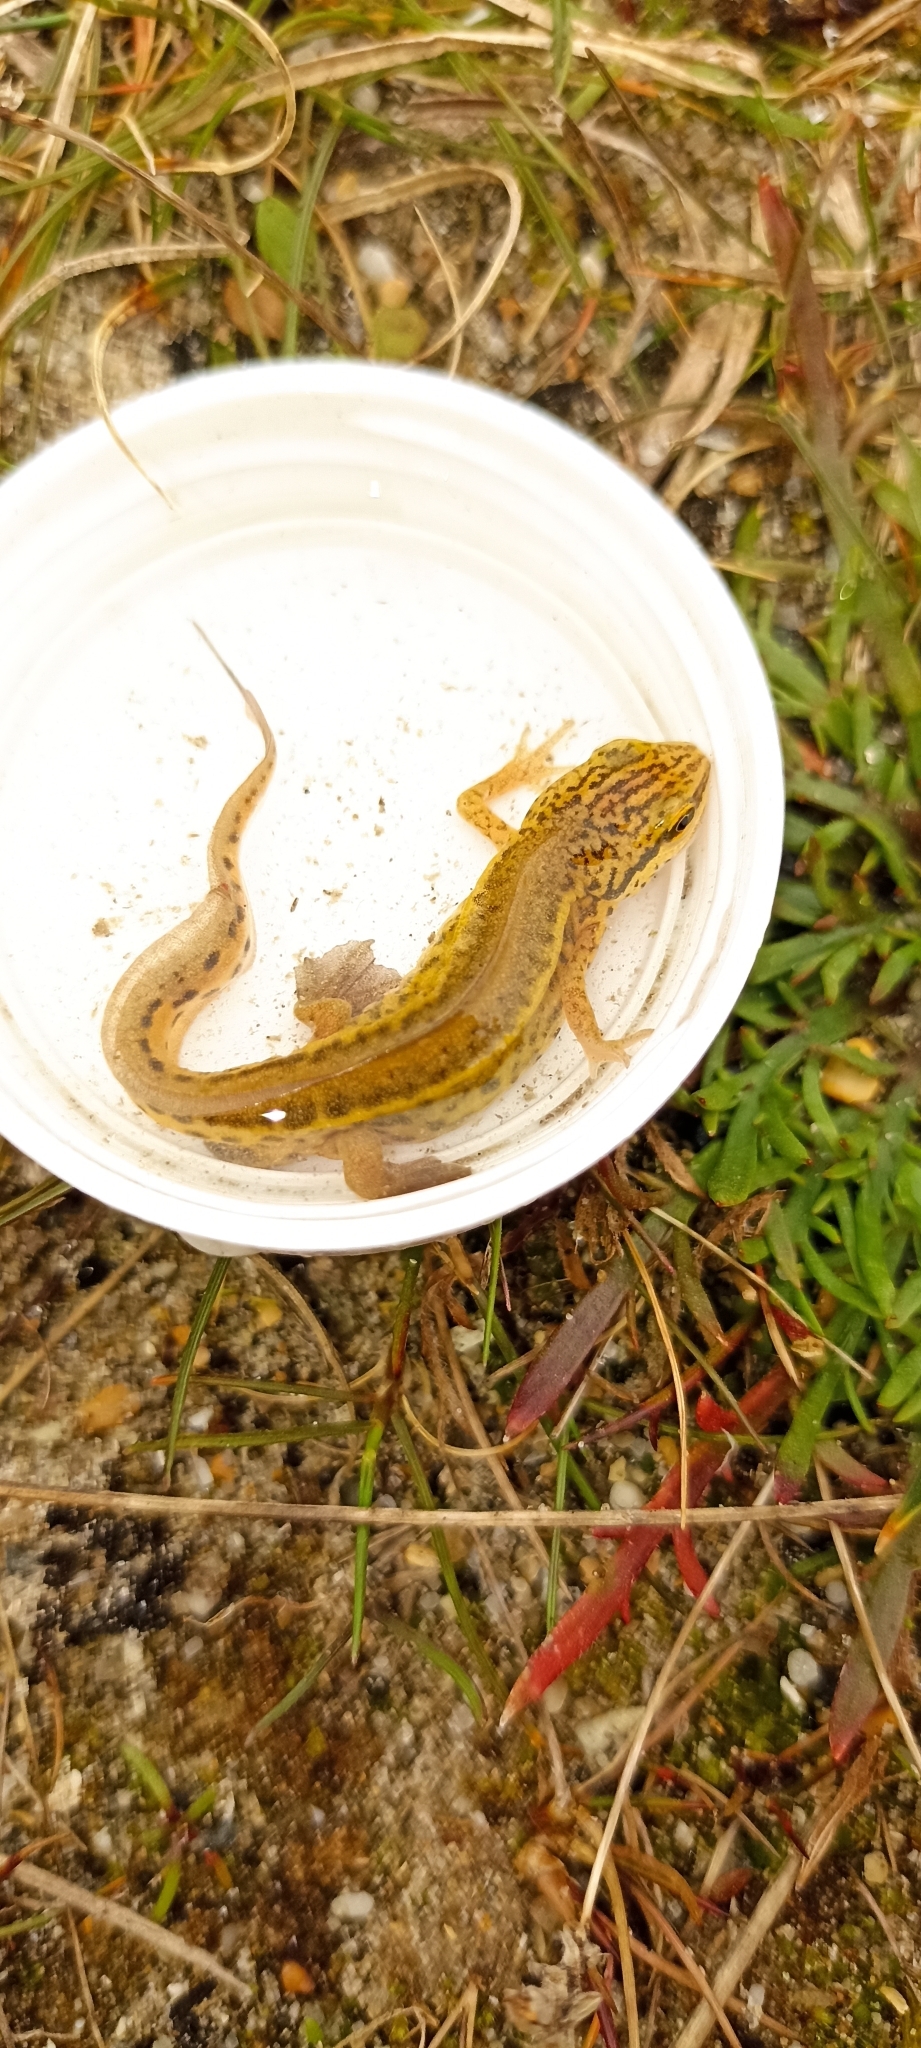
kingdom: Animalia
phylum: Chordata
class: Amphibia
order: Caudata
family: Salamandridae
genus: Lissotriton
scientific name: Lissotriton helveticus
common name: Palmate newt
